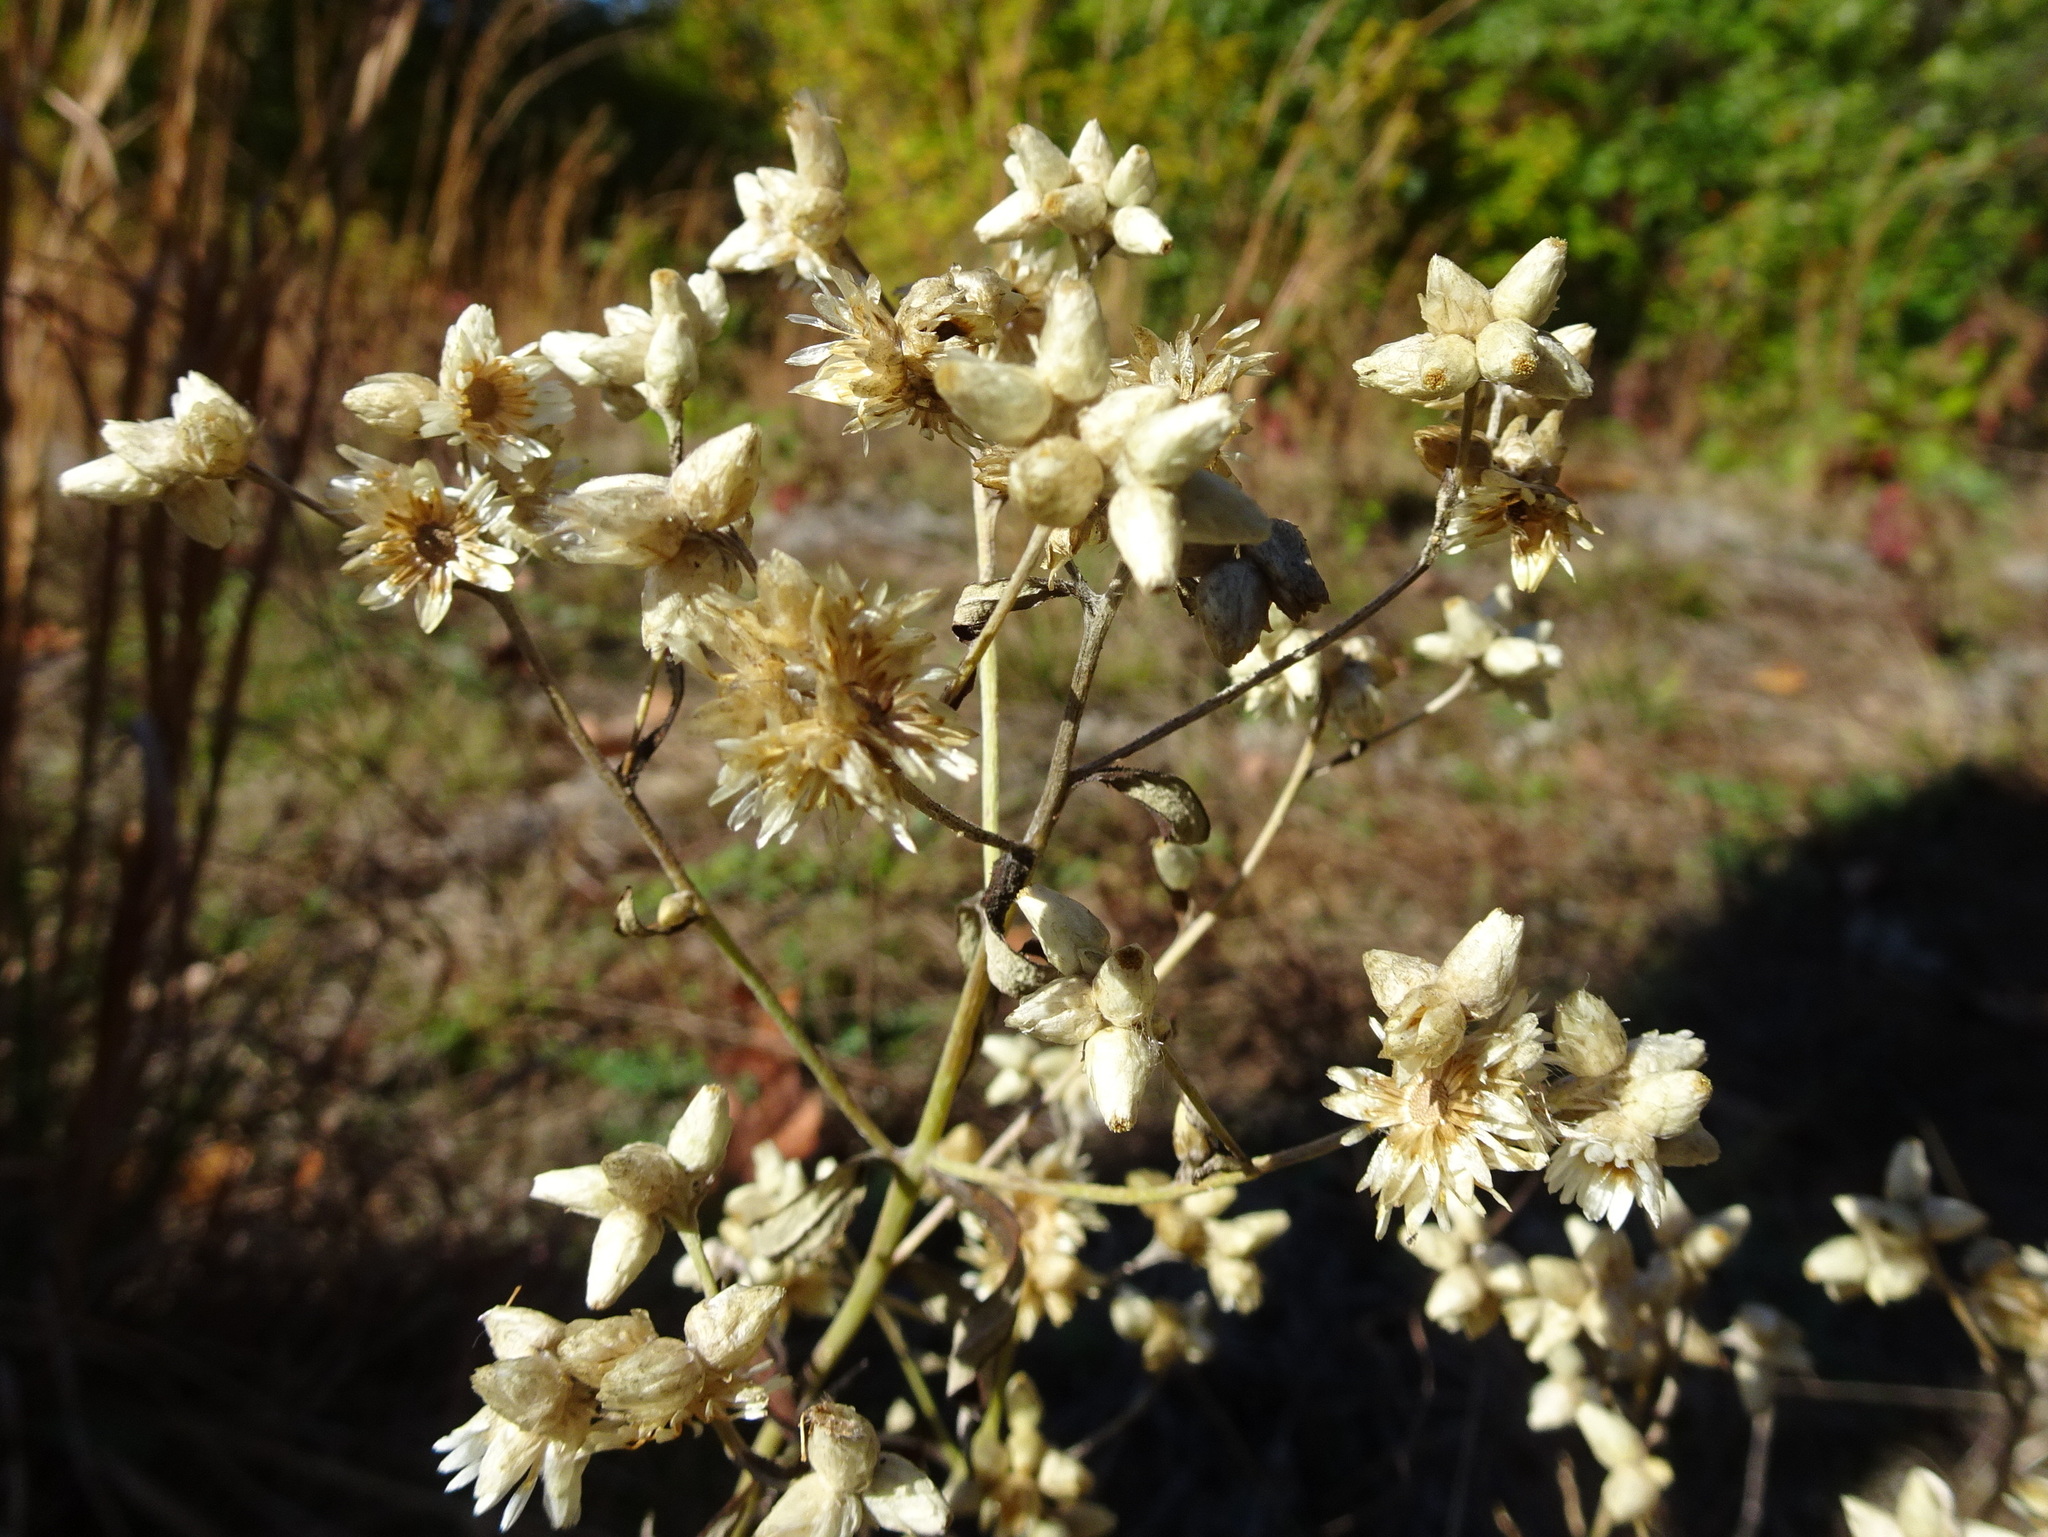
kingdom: Plantae
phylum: Tracheophyta
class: Magnoliopsida
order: Asterales
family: Asteraceae
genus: Pseudognaphalium
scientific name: Pseudognaphalium obtusifolium
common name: Eastern rabbit-tobacco
